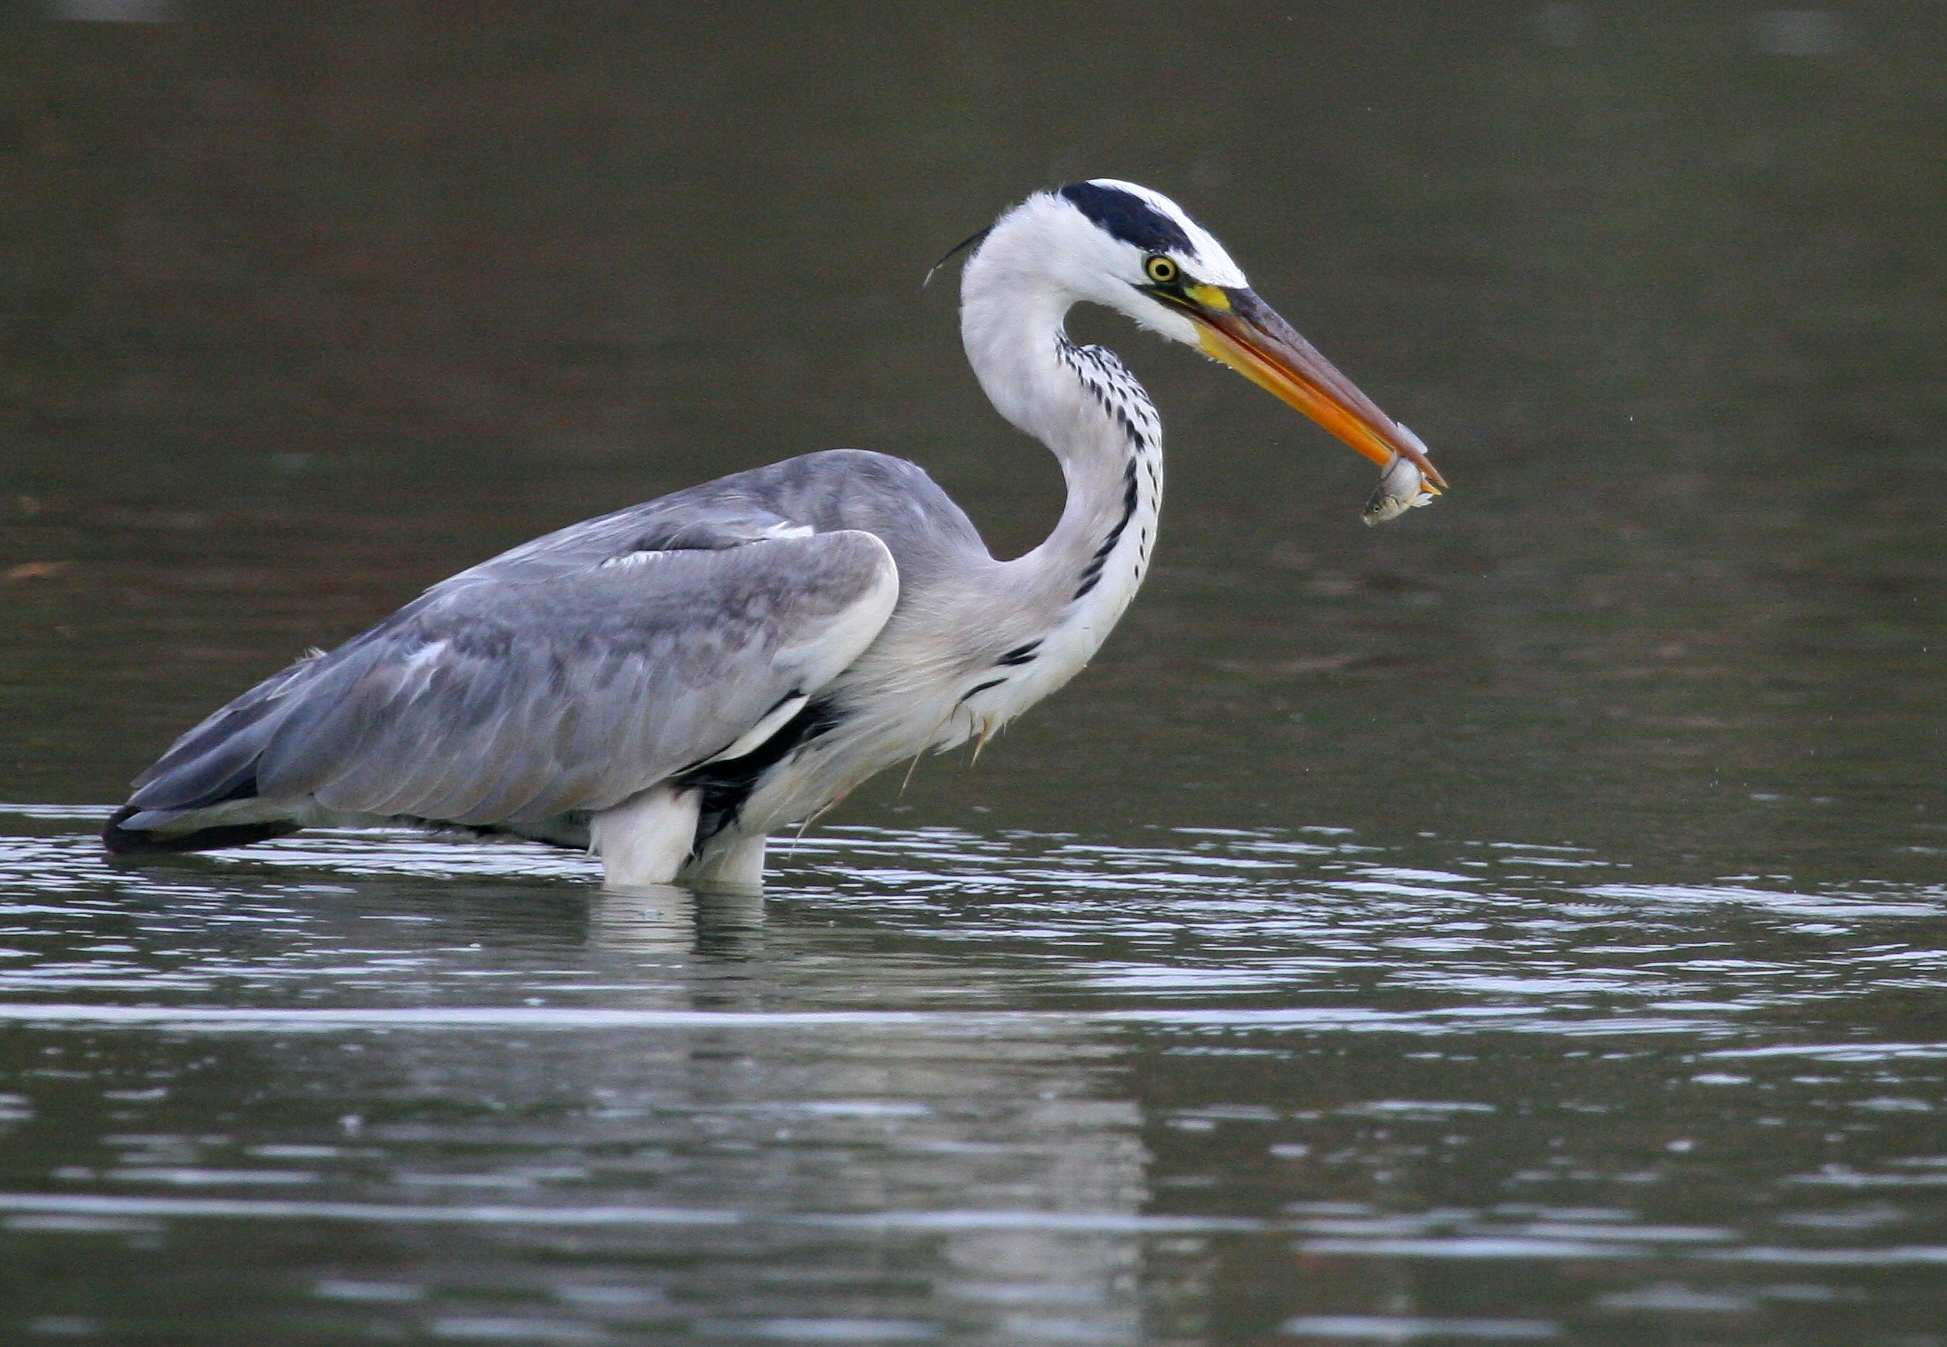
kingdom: Animalia
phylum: Chordata
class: Aves
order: Pelecaniformes
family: Ardeidae
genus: Ardea
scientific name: Ardea cinerea
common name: Grey heron
